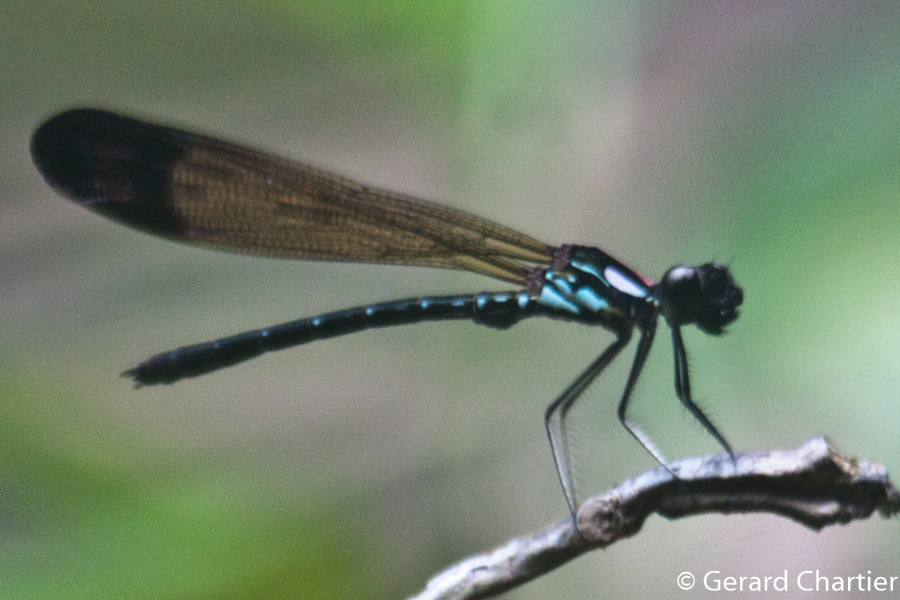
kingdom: Animalia
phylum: Arthropoda
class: Insecta
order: Odonata
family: Chlorocyphidae
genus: Heliocypha
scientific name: Heliocypha biforata
